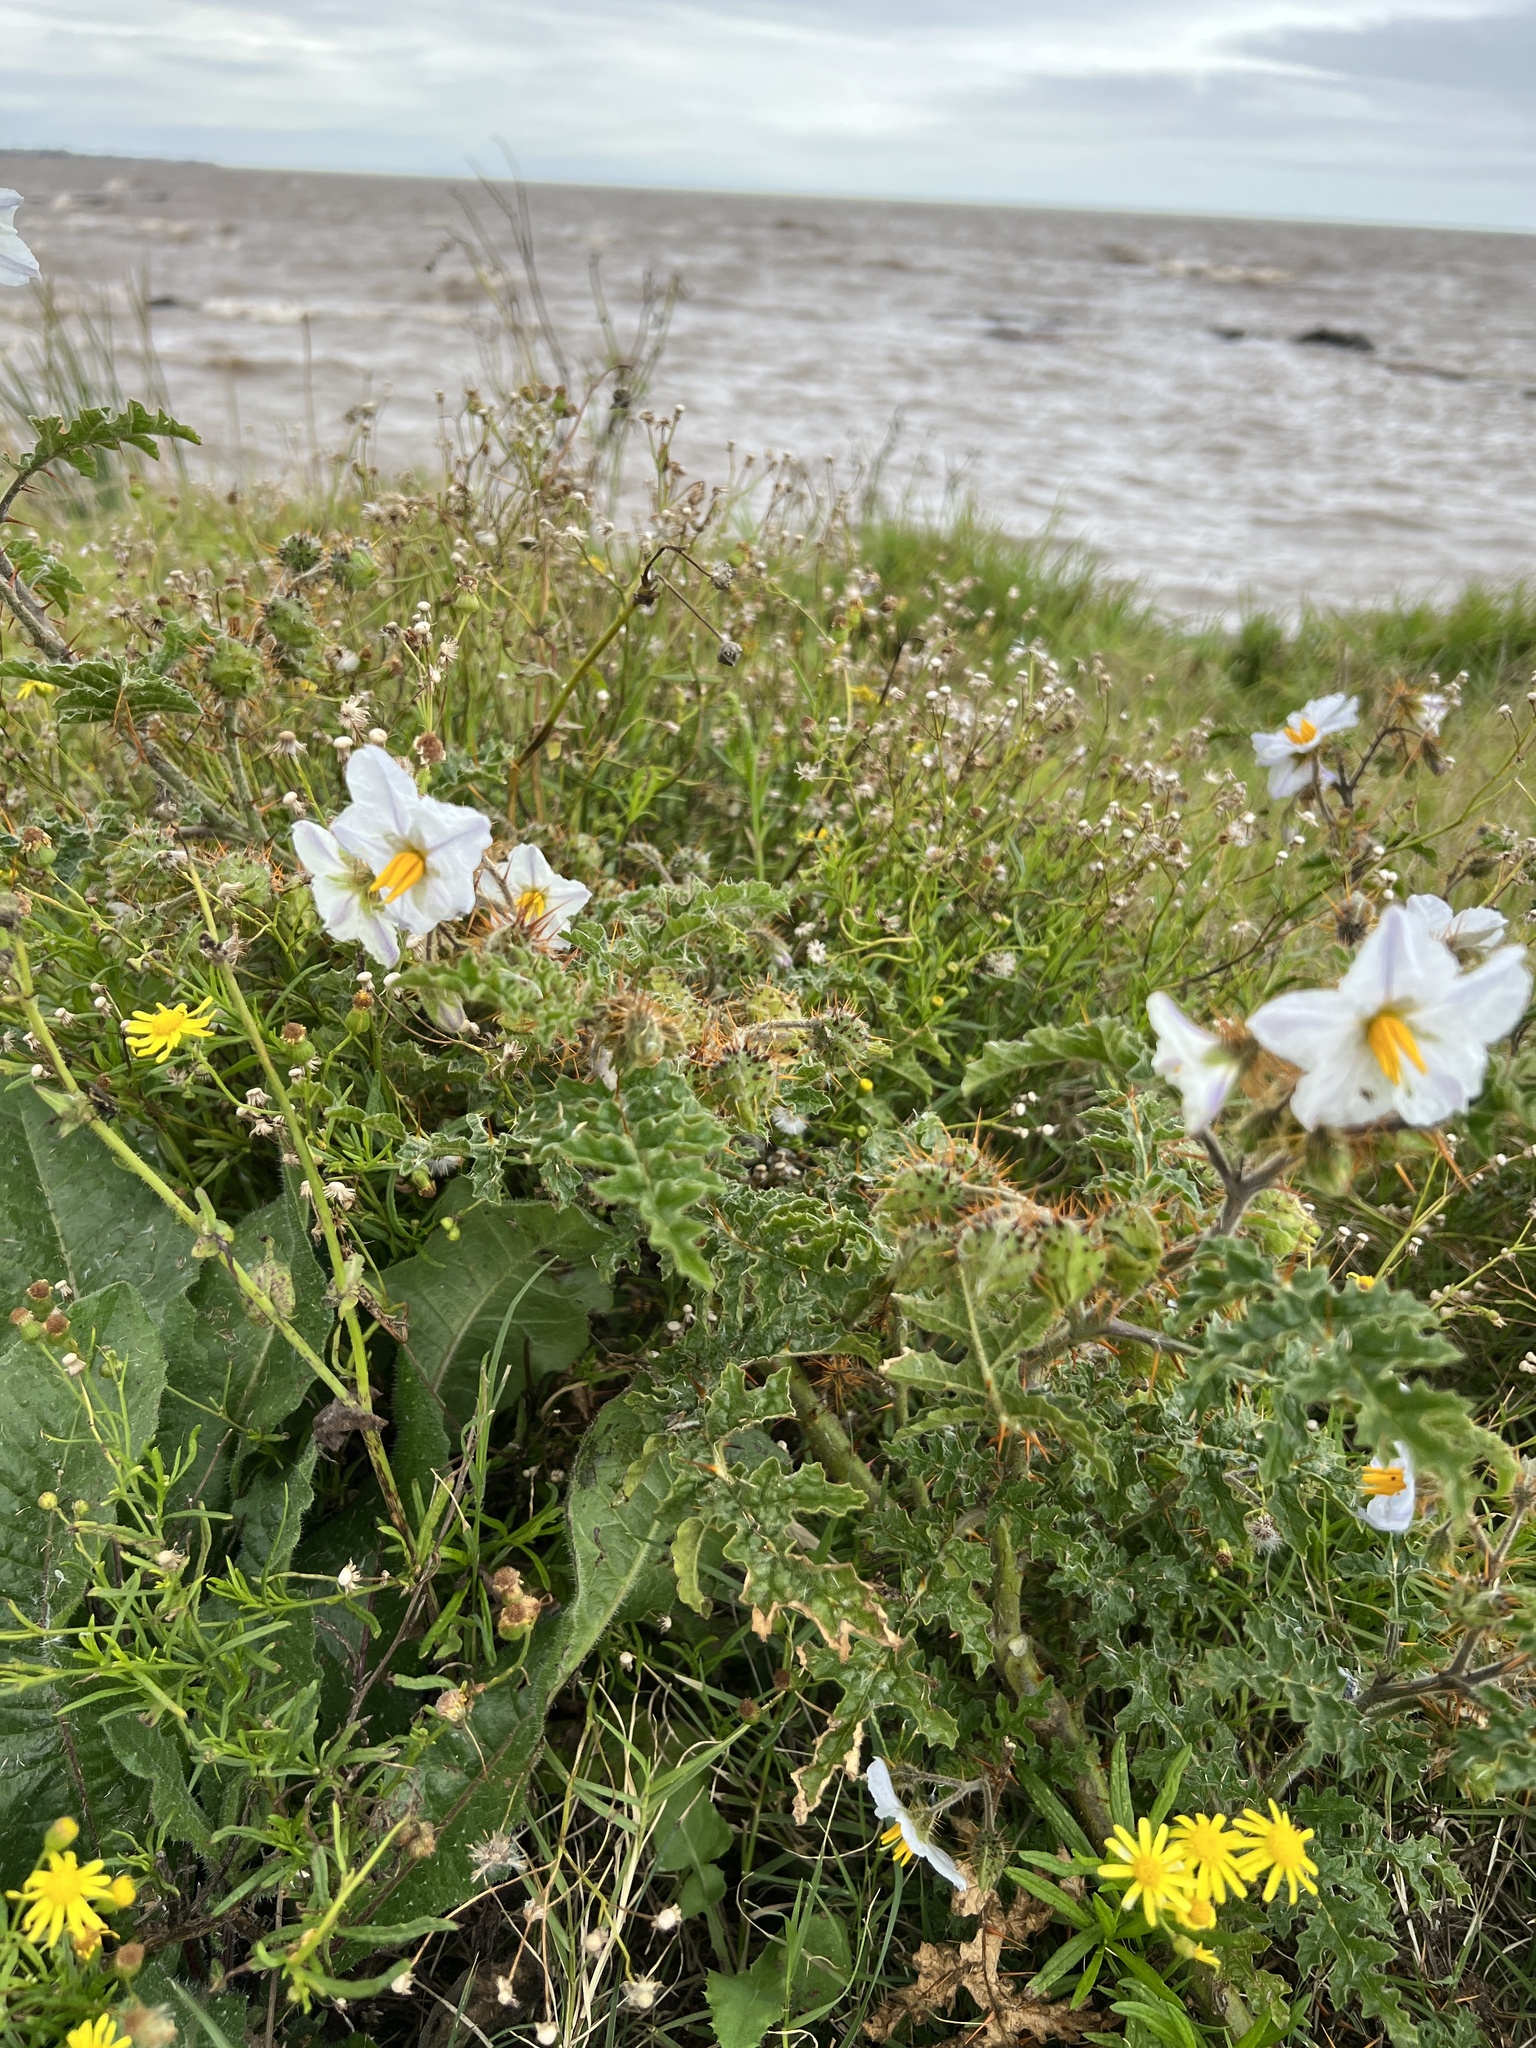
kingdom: Plantae
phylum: Tracheophyta
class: Magnoliopsida
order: Solanales
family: Solanaceae
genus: Solanum
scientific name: Solanum sisymbriifolium
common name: Red buffalo-bur
